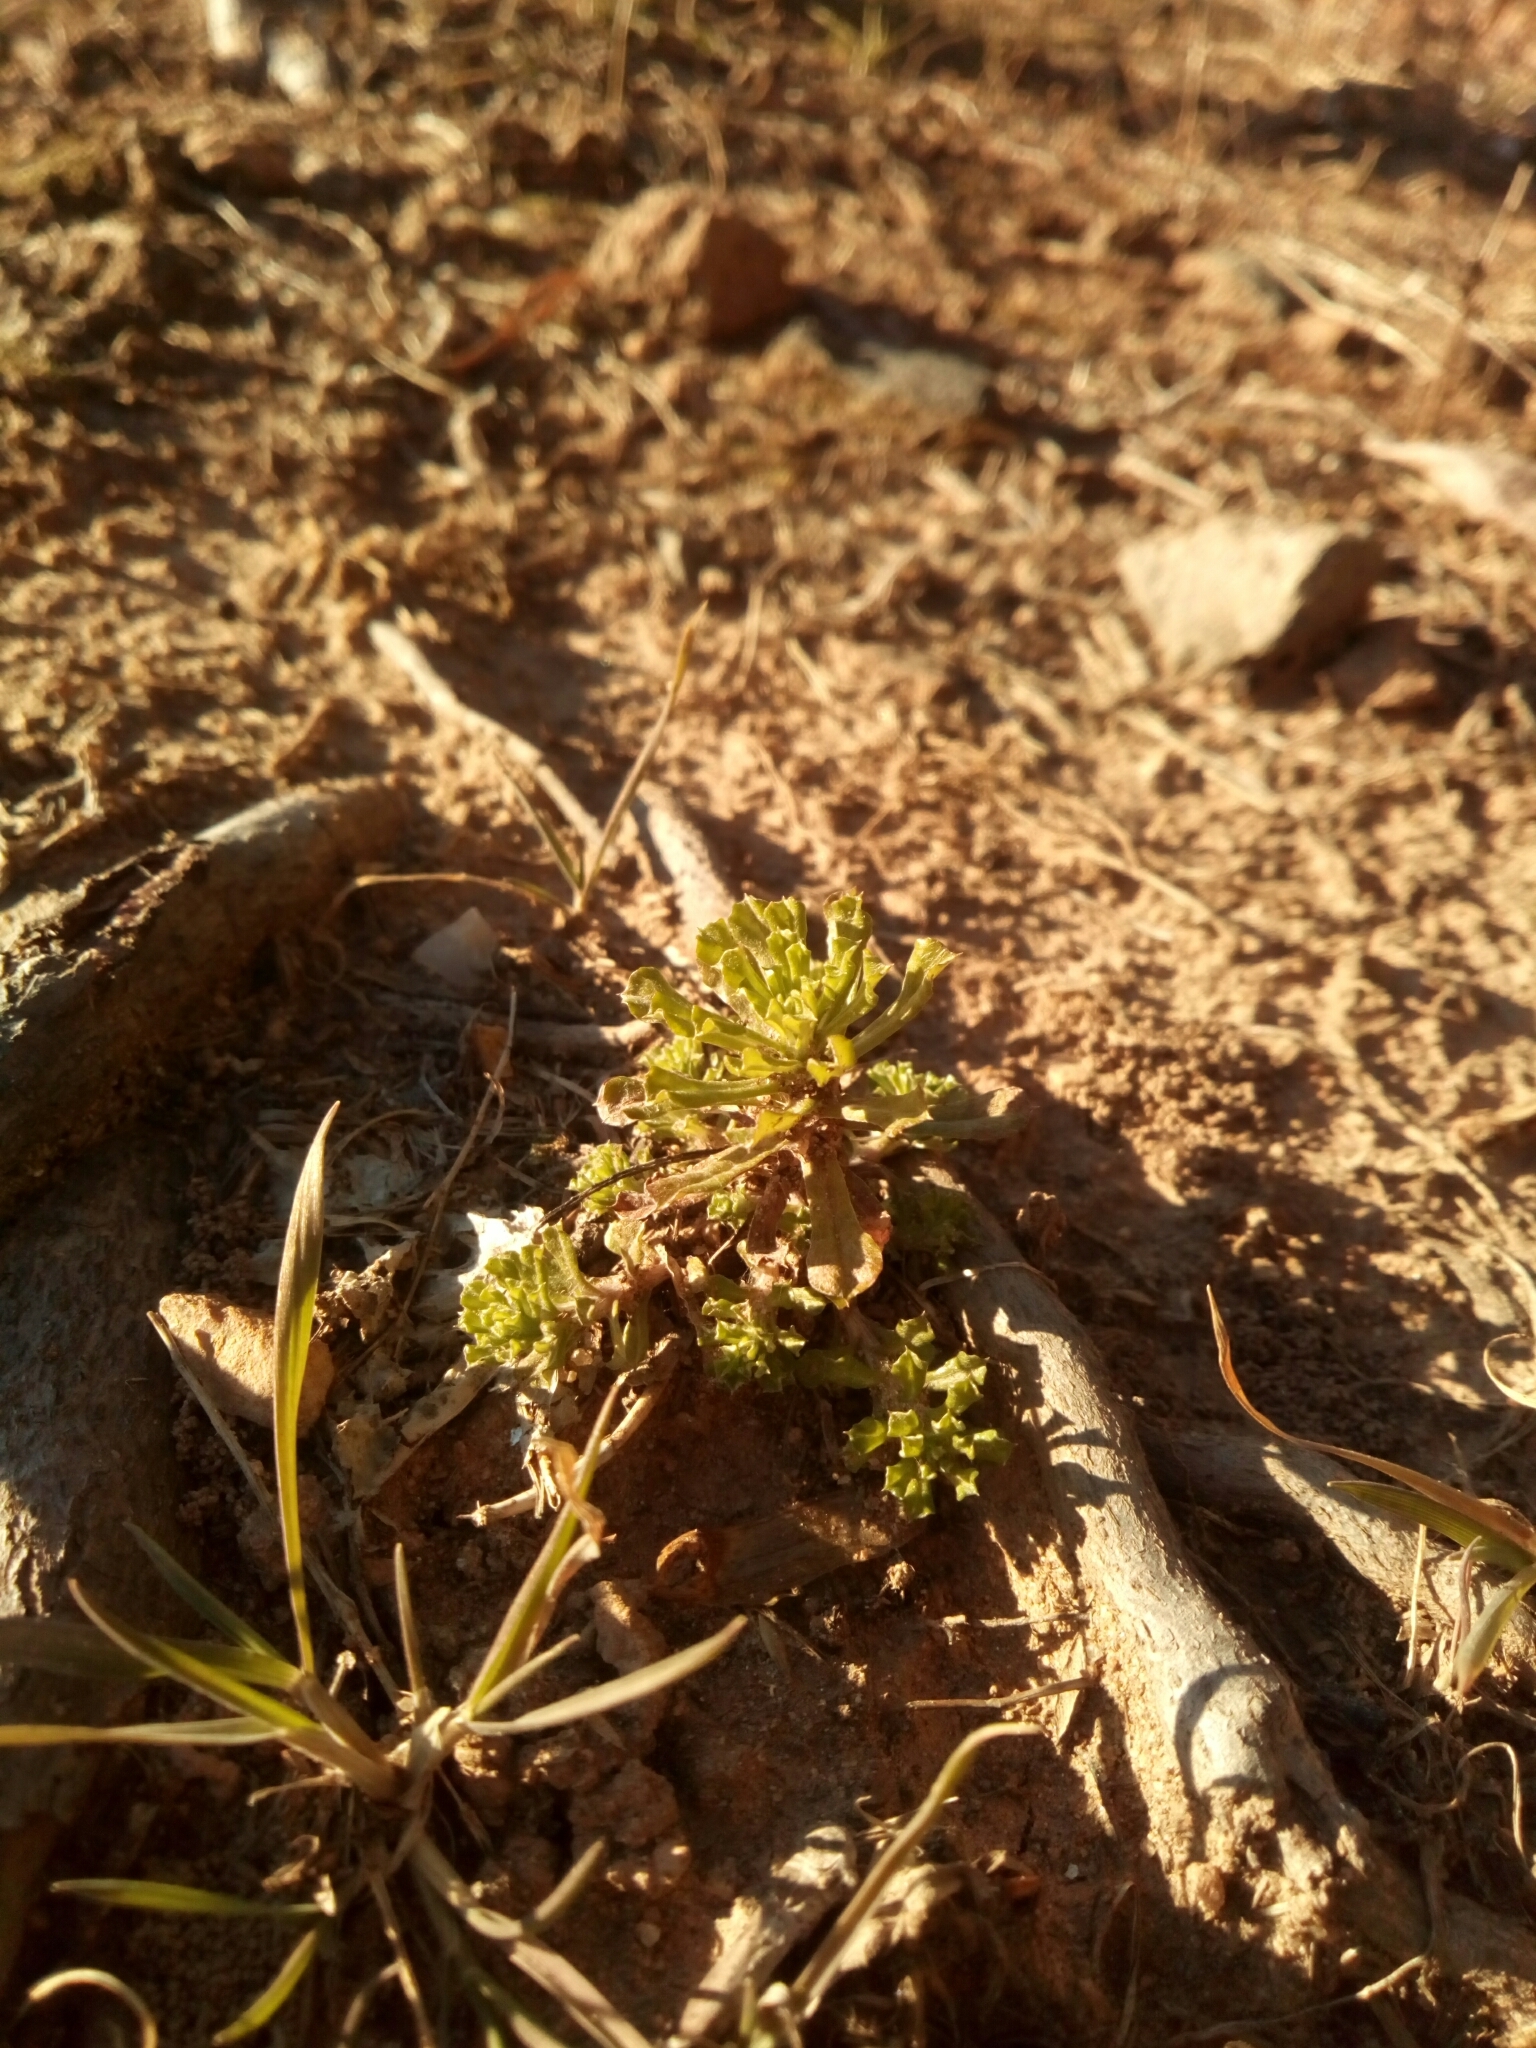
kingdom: Plantae
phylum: Tracheophyta
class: Magnoliopsida
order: Asterales
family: Asteraceae
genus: Facelis
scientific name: Facelis retusa
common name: Annual trampweed
